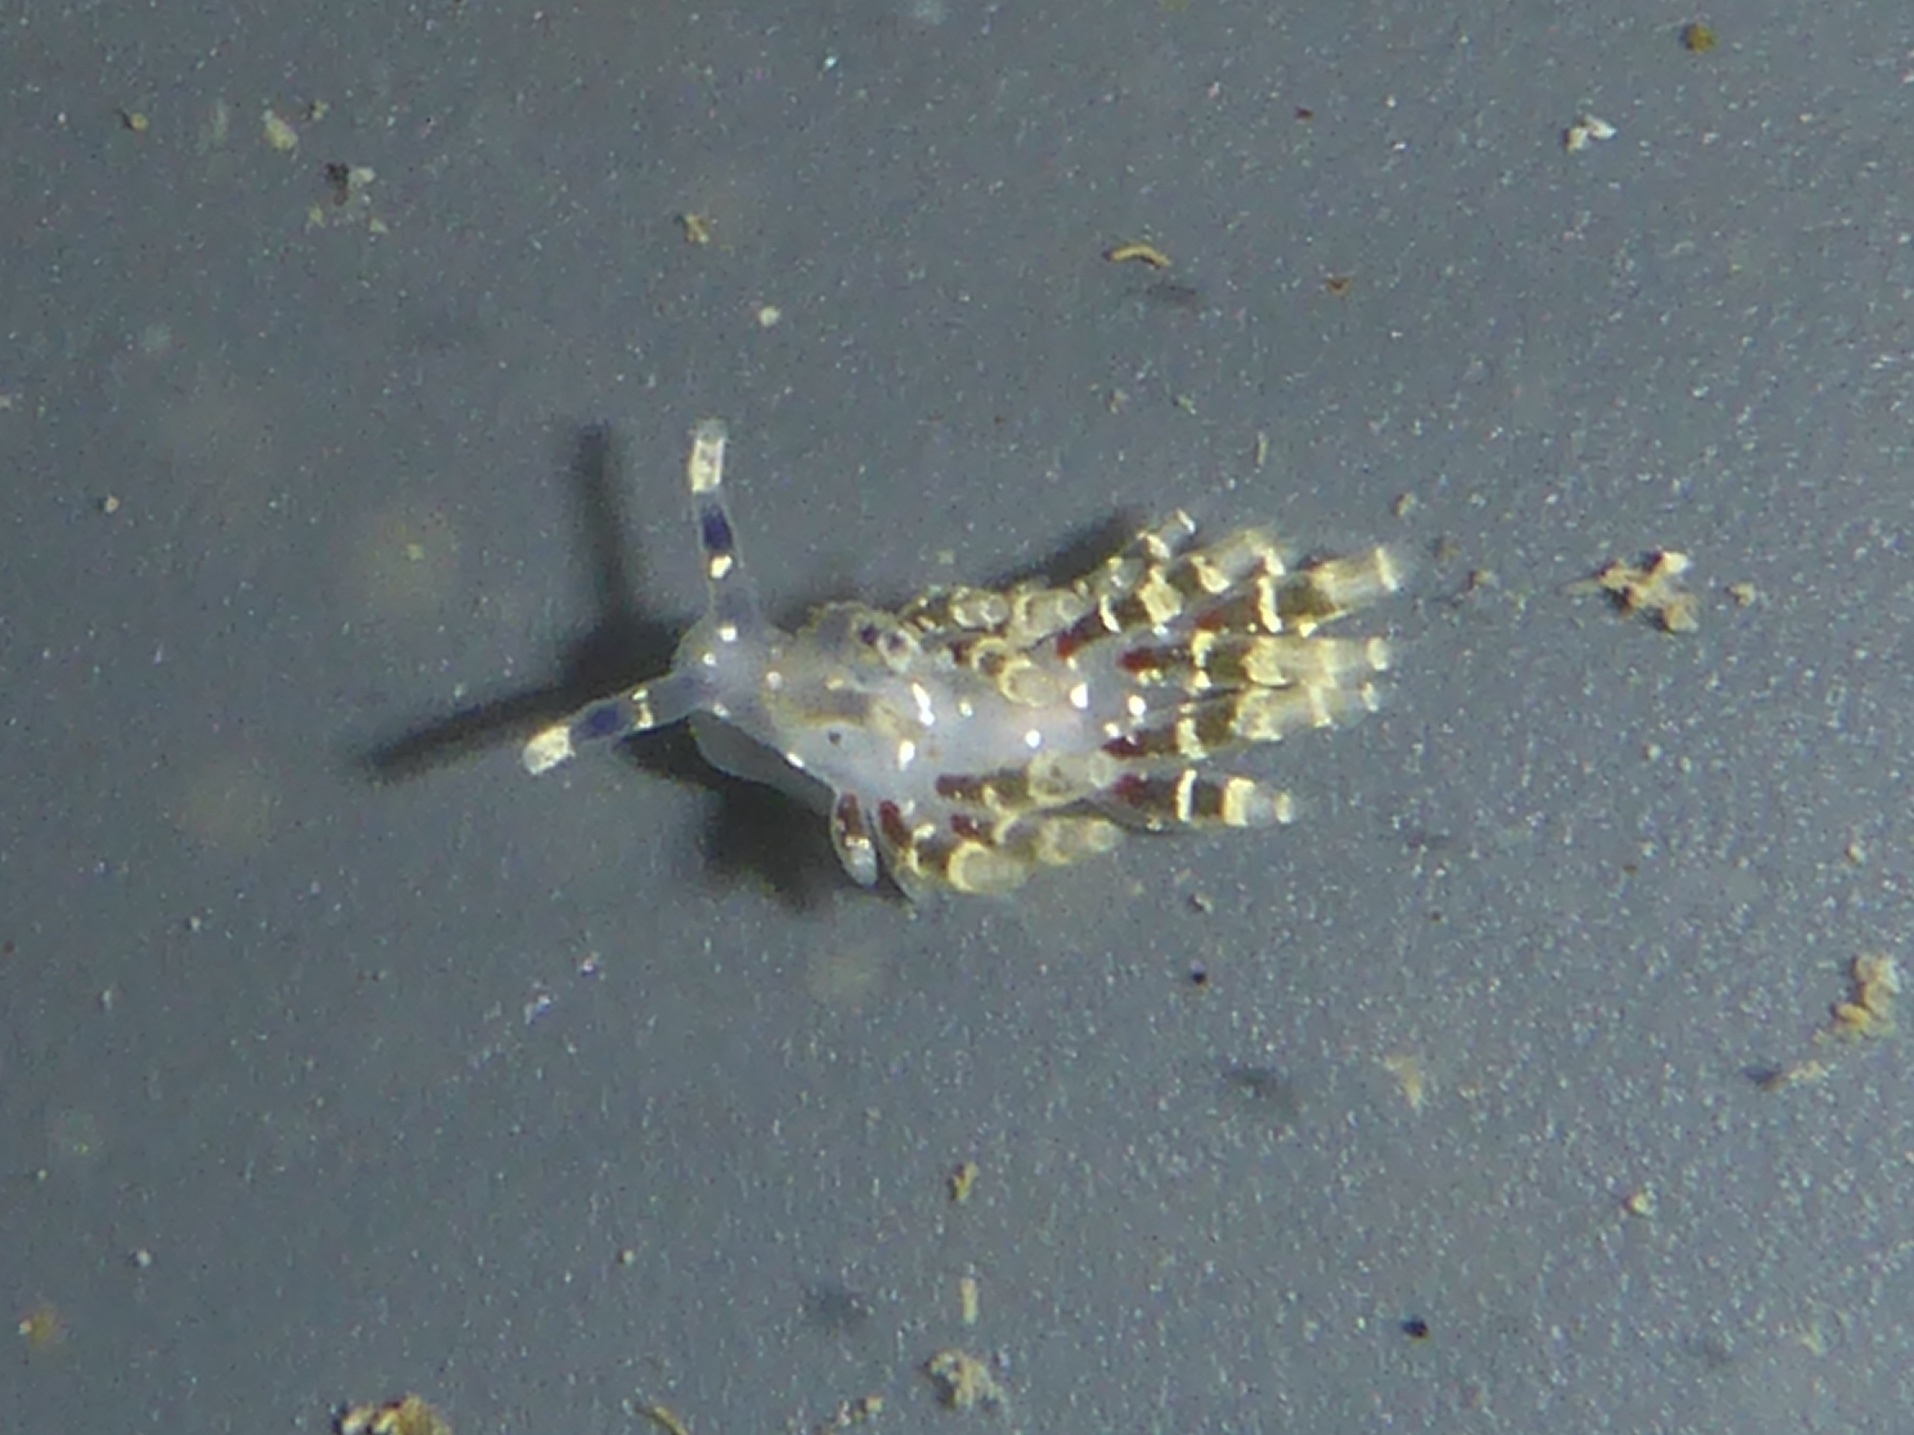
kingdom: Animalia
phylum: Mollusca
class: Gastropoda
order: Nudibranchia
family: Abronicidae
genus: Abronica
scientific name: Abronica abronia
